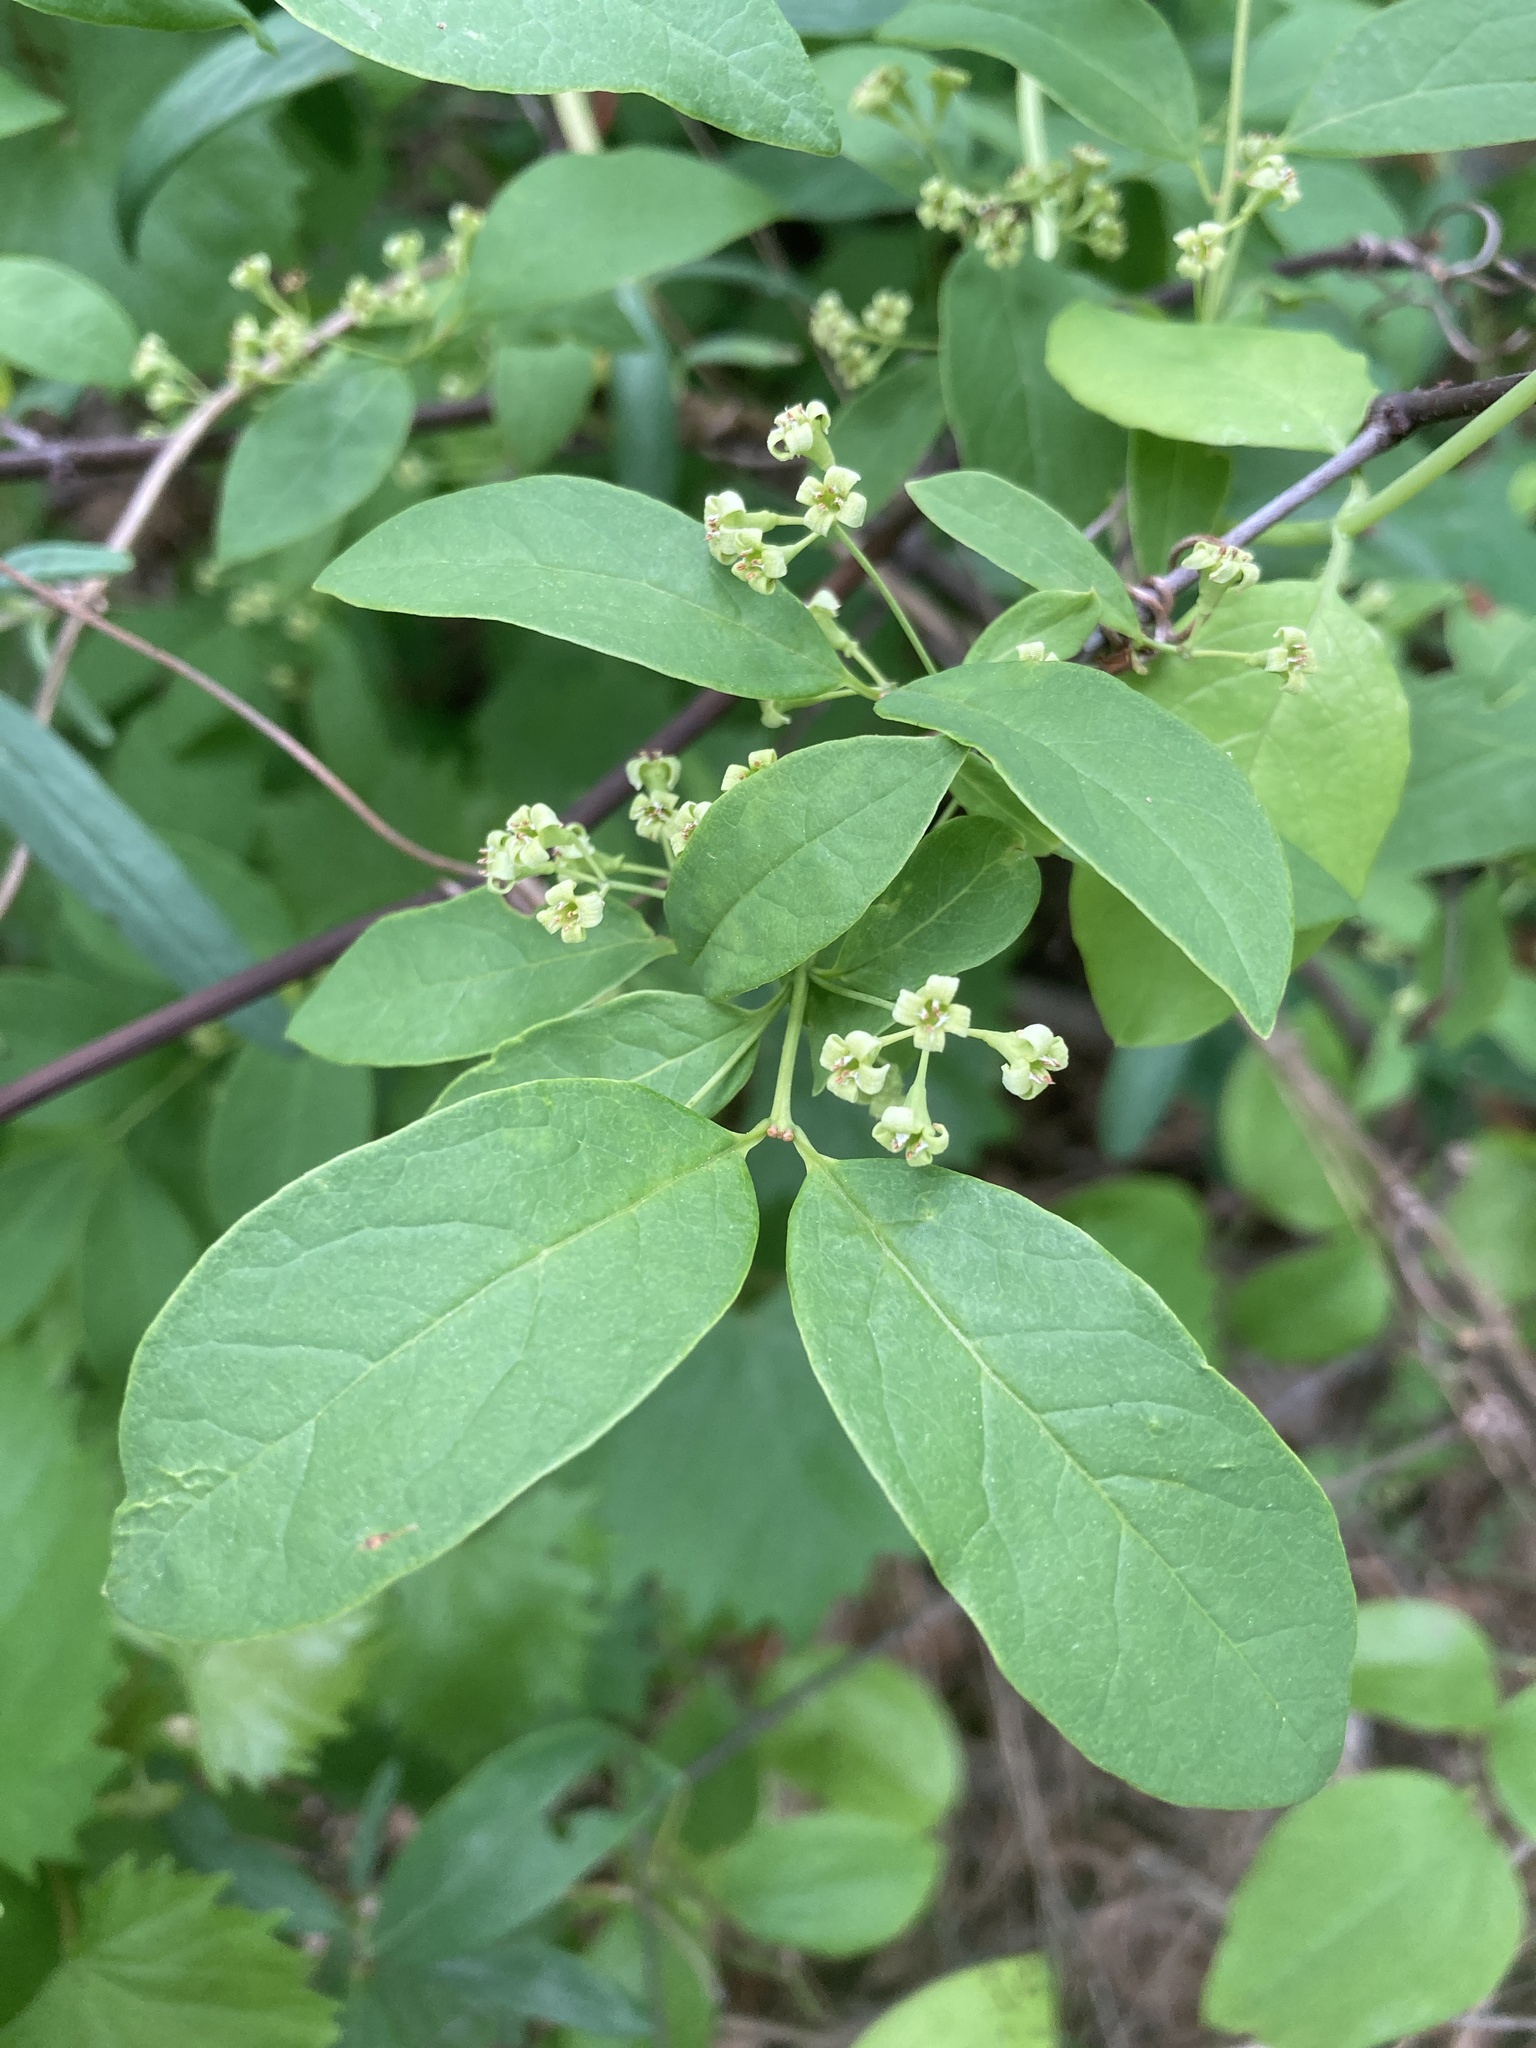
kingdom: Plantae
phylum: Tracheophyta
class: Magnoliopsida
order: Celastrales
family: Celastraceae
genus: Euonymus
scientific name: Euonymus atropurpureus
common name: Eastern wahoo
